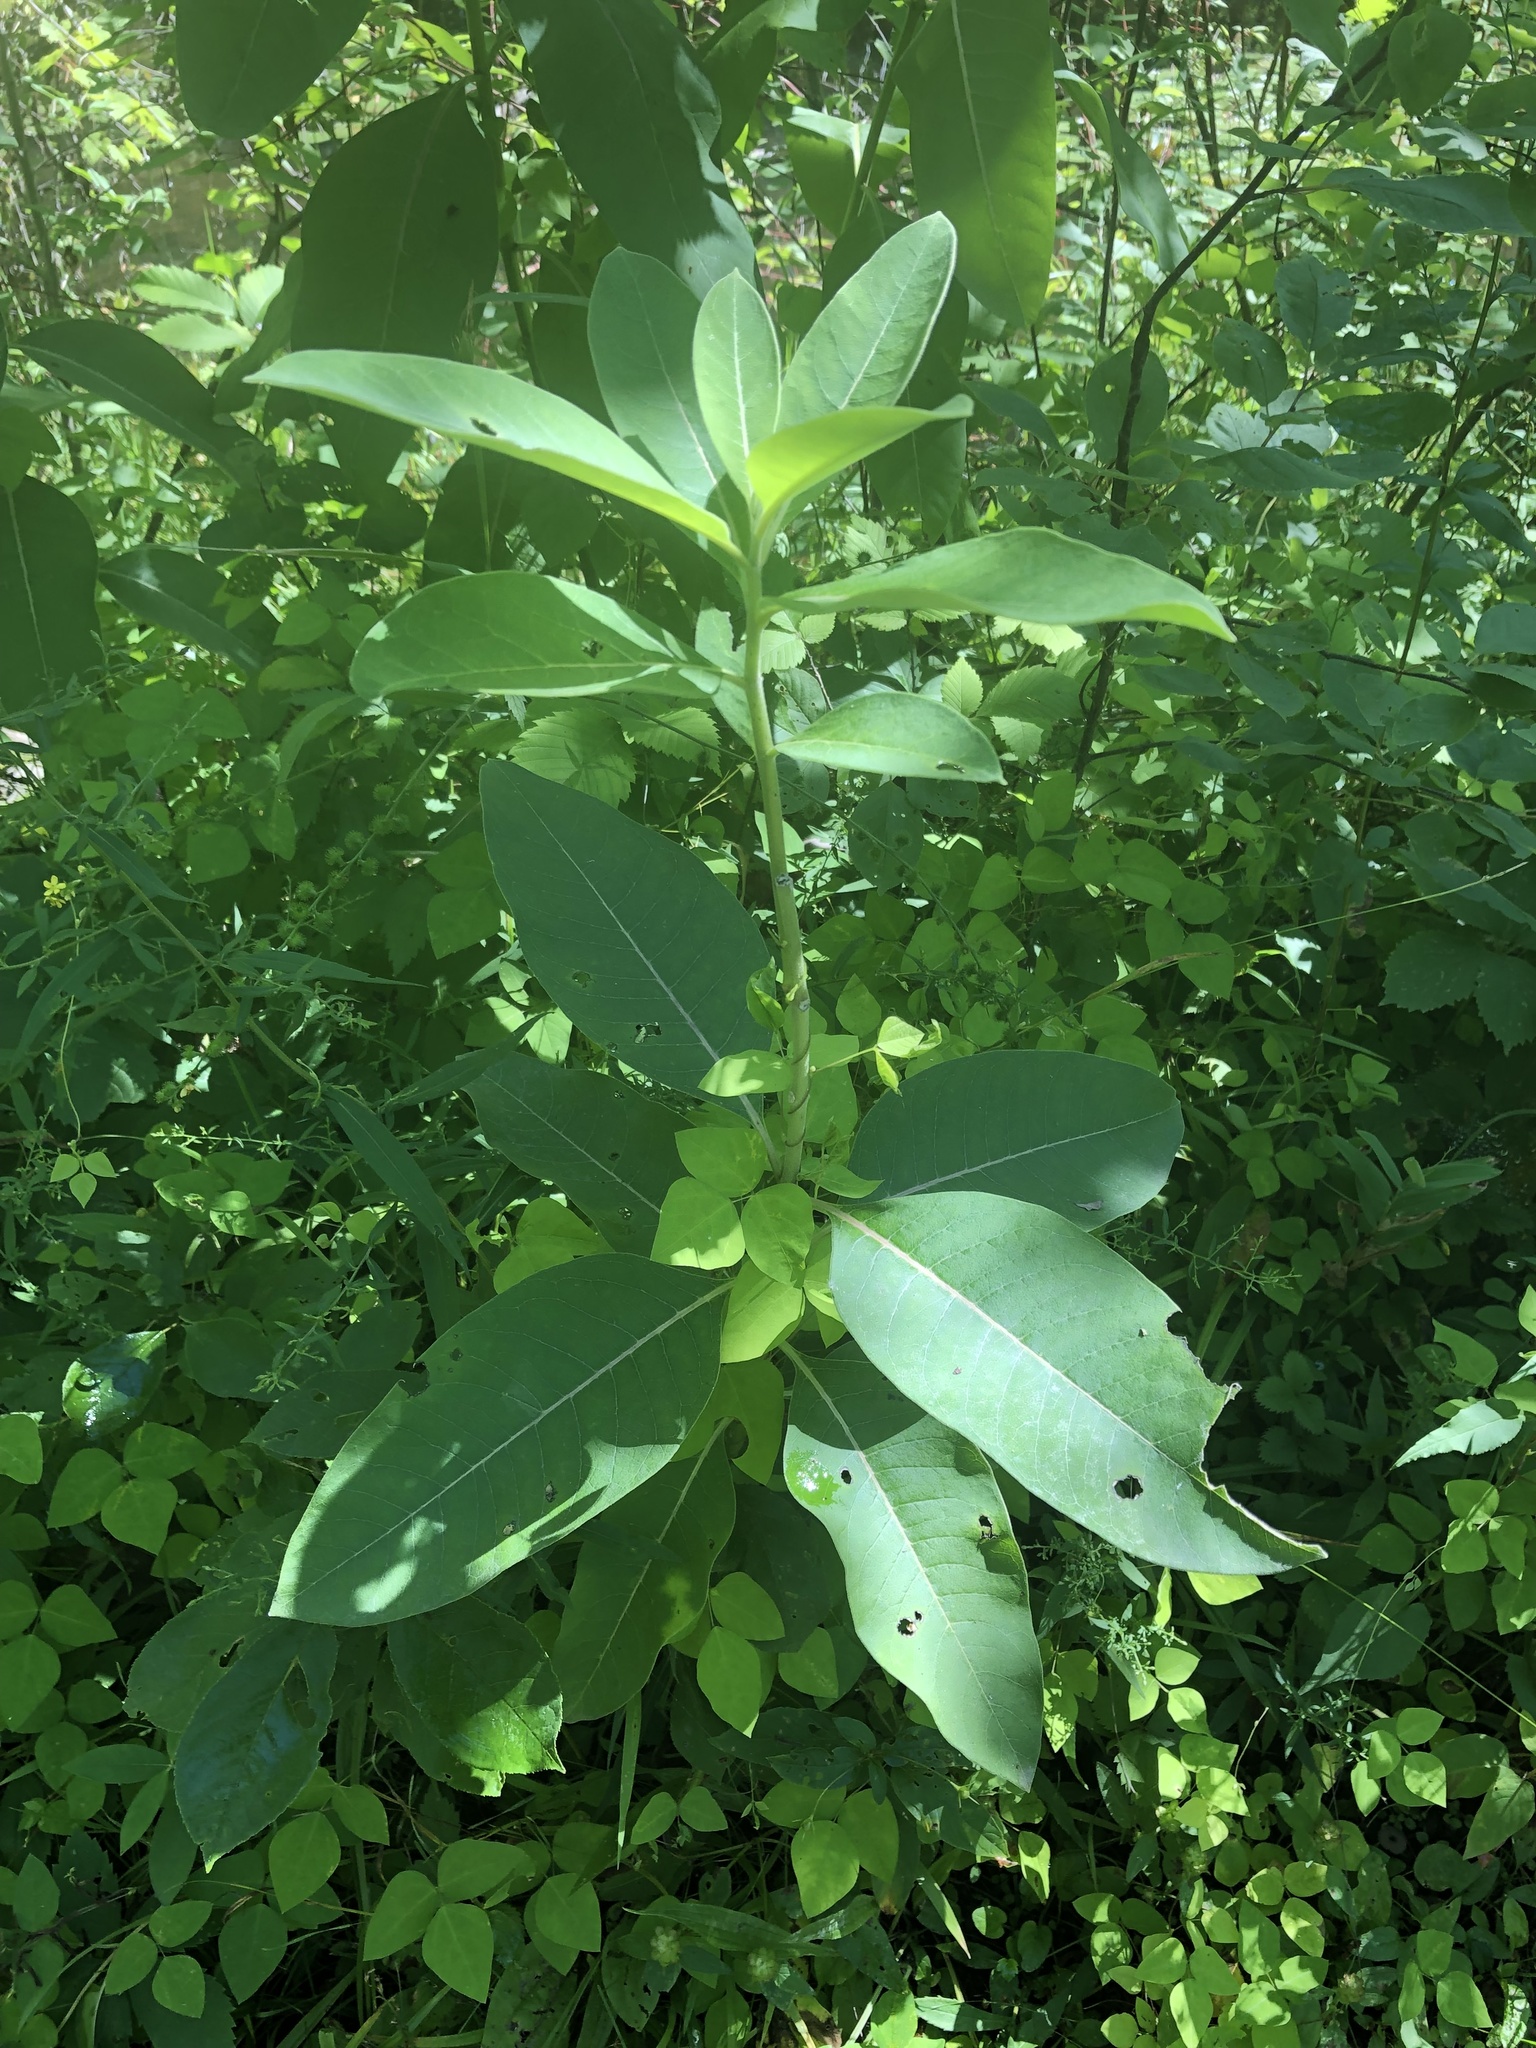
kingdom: Plantae
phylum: Tracheophyta
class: Magnoliopsida
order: Gentianales
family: Apocynaceae
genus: Asclepias
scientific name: Asclepias syriaca
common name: Common milkweed
